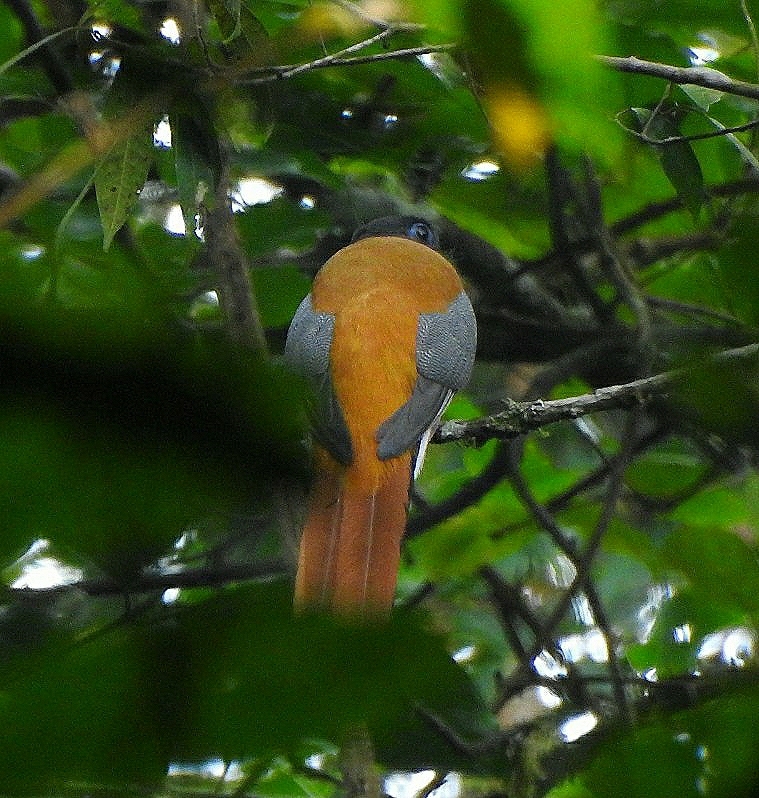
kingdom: Animalia
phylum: Chordata
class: Aves
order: Trogoniformes
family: Trogonidae
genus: Harpactes
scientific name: Harpactes fasciatus
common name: Malabar trogon
